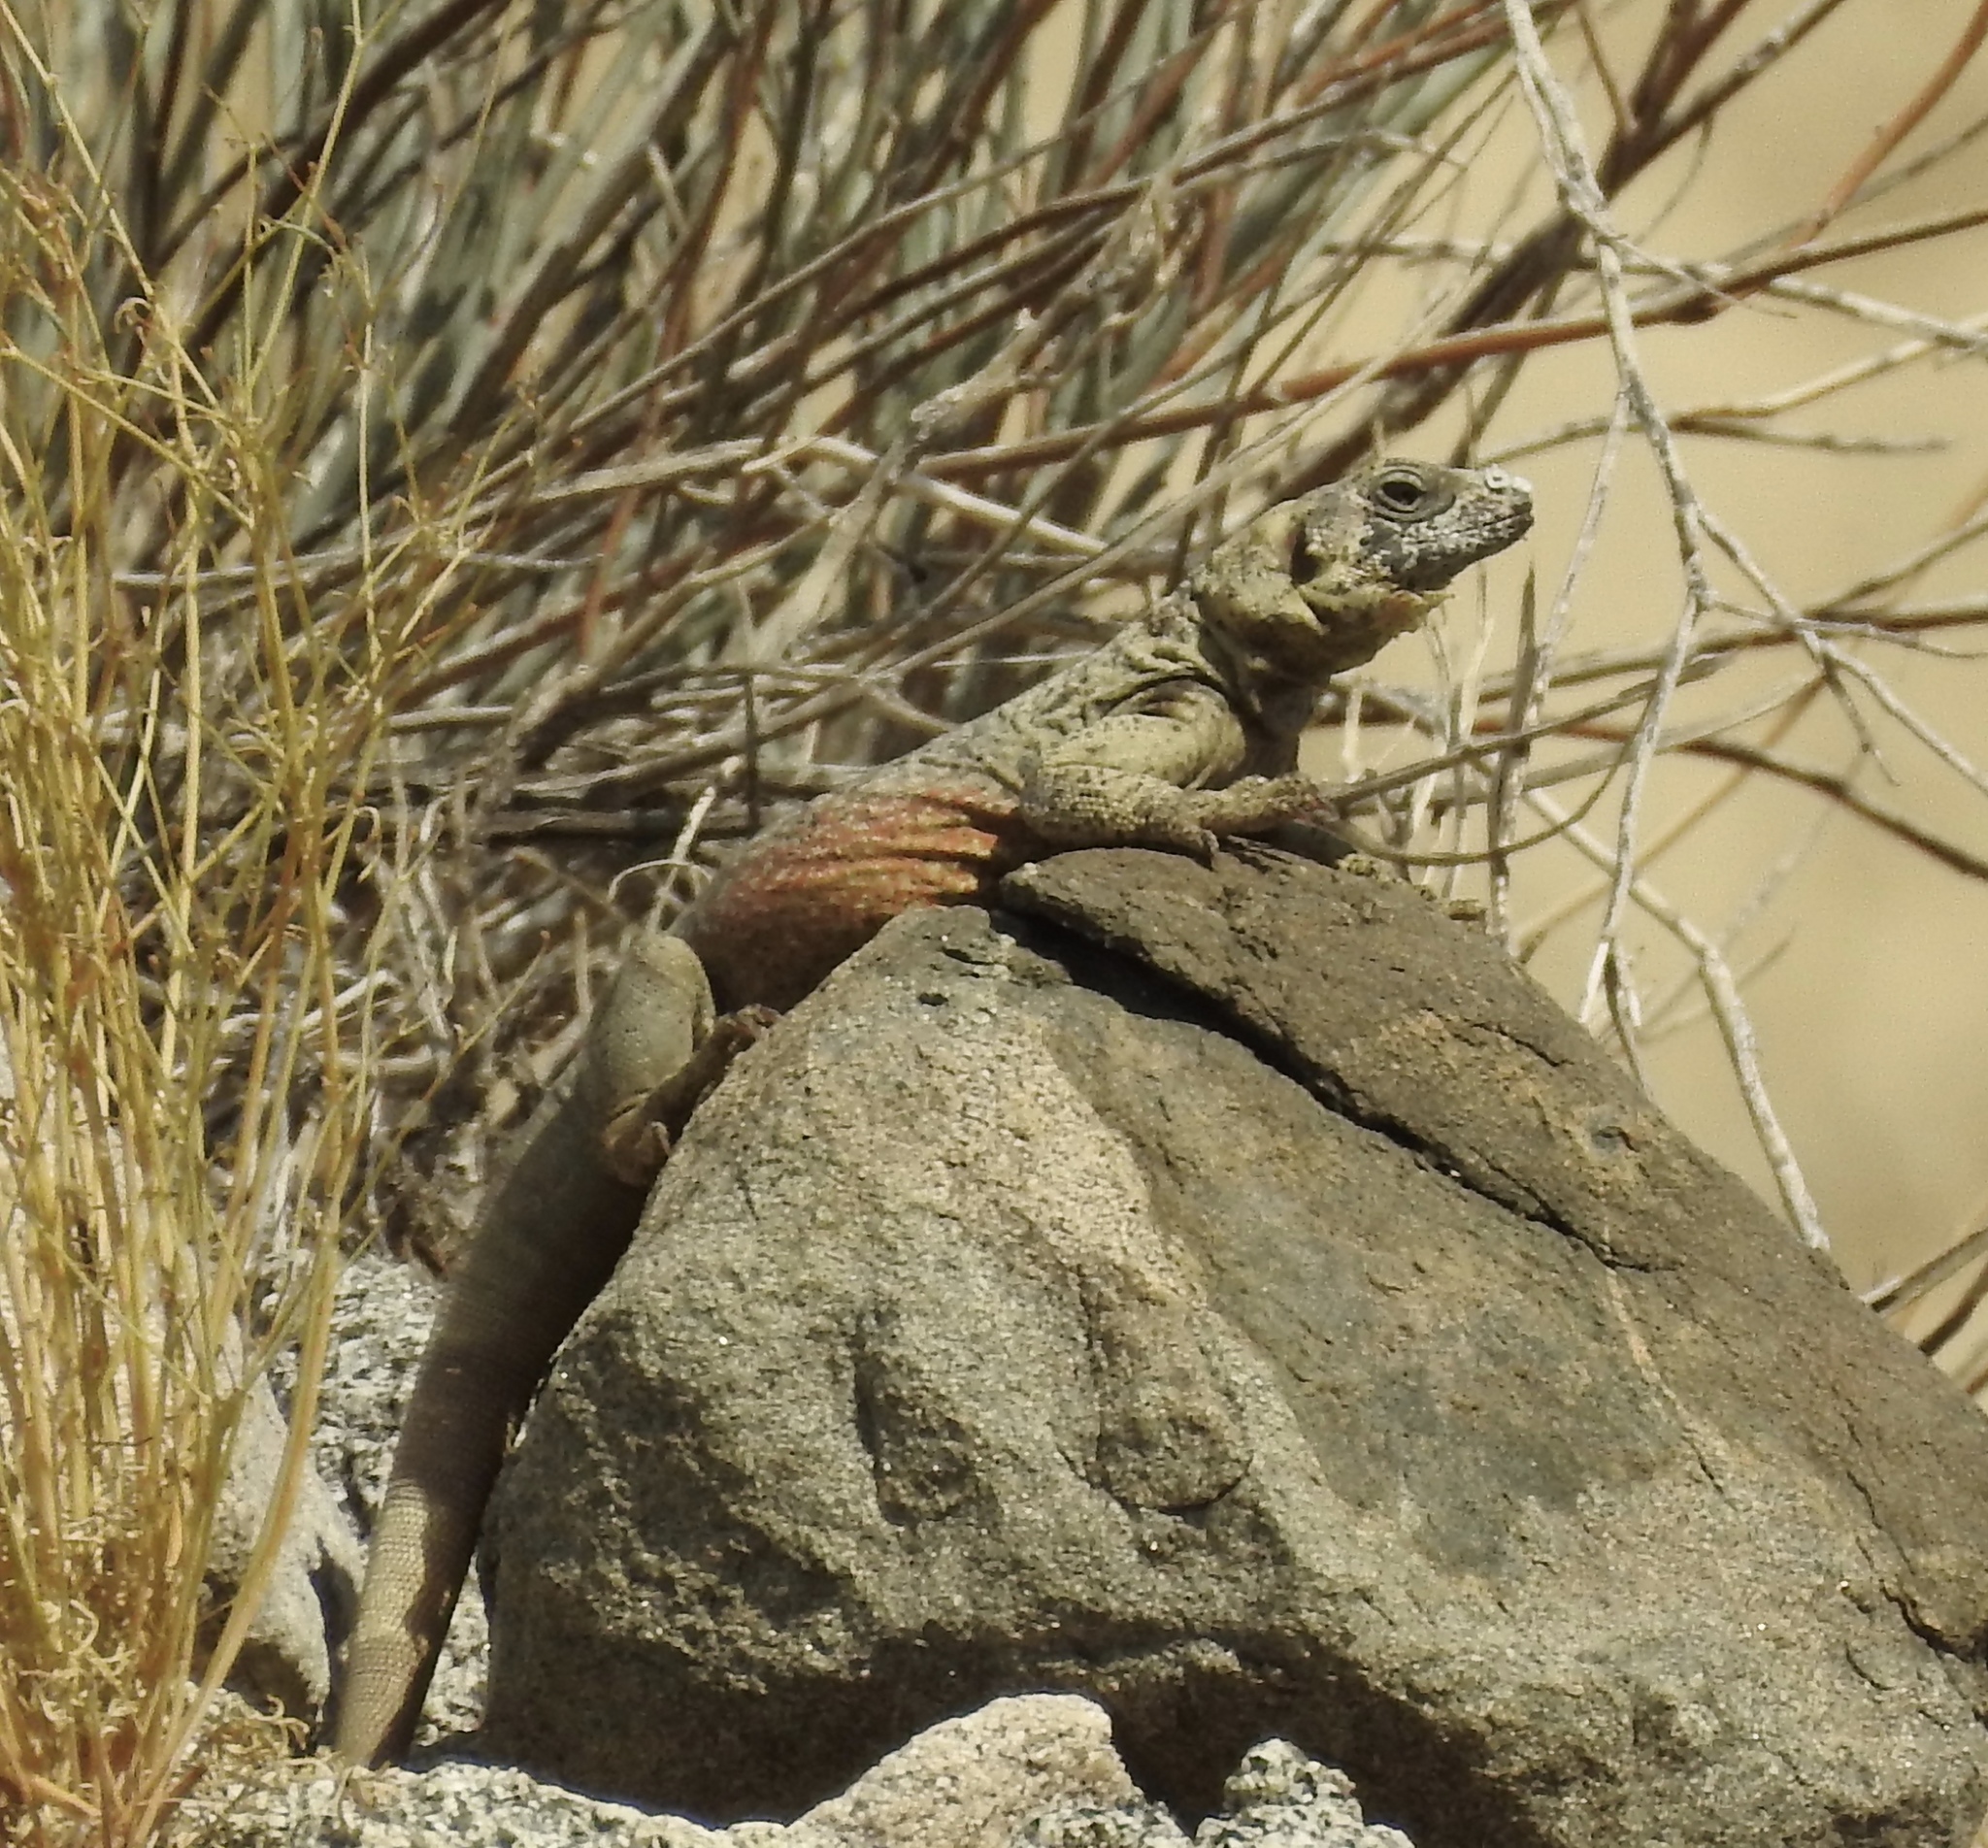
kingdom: Animalia
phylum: Chordata
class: Squamata
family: Iguanidae
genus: Sauromalus
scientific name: Sauromalus ater
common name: Northern chuckwalla
